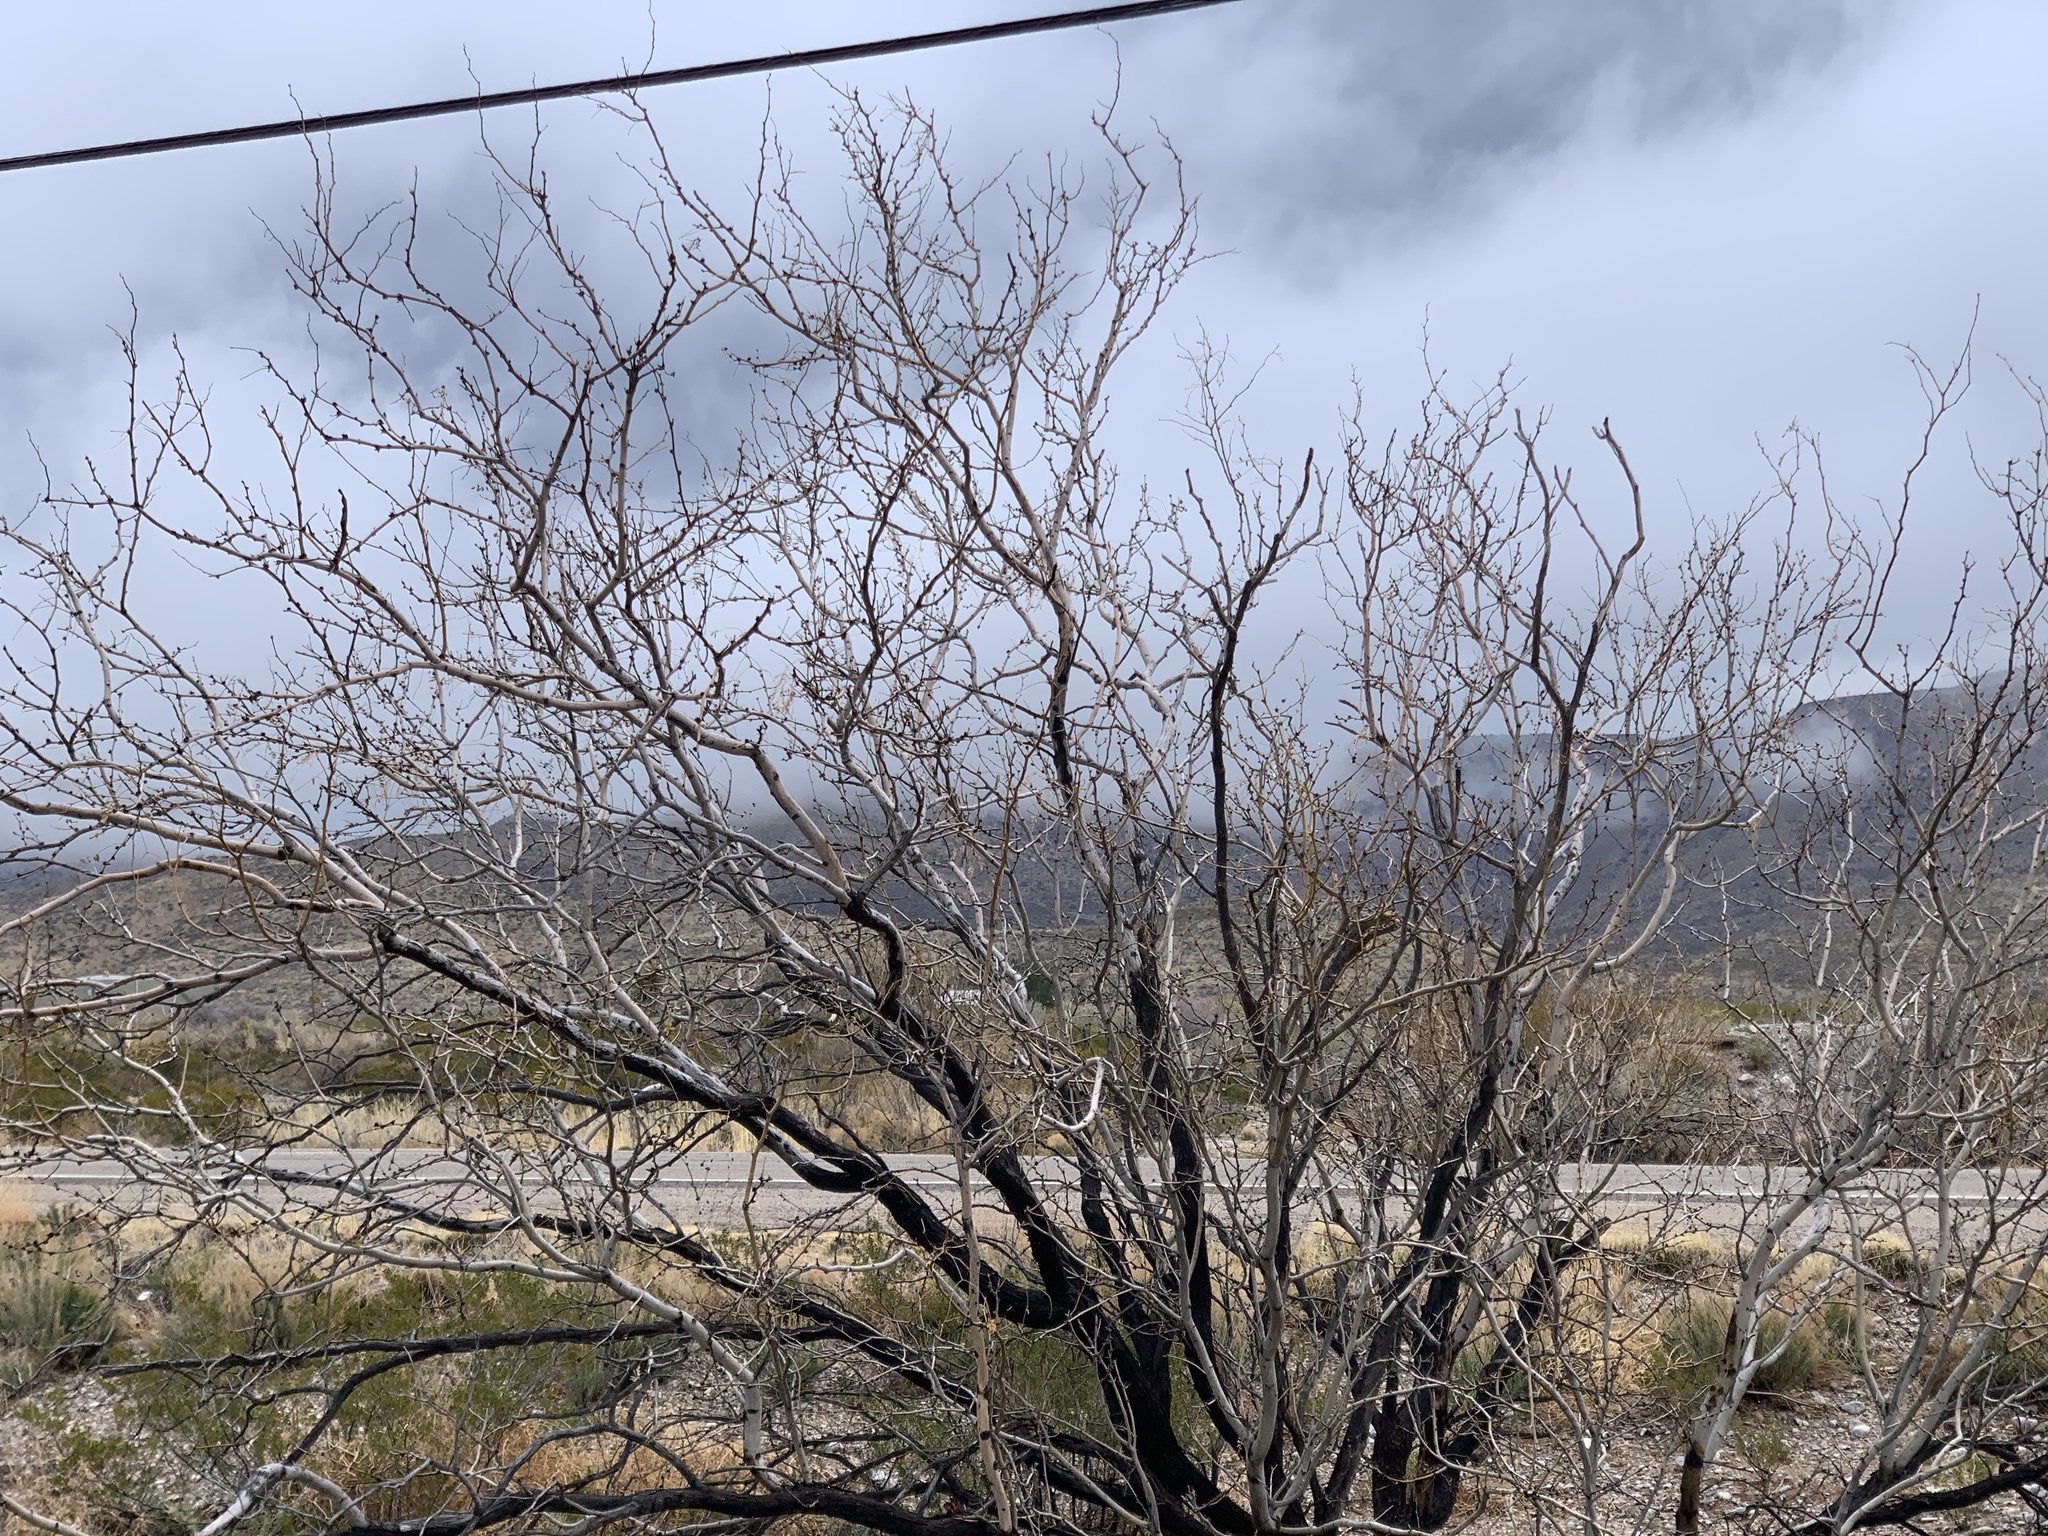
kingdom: Plantae
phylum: Tracheophyta
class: Magnoliopsida
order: Fabales
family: Fabaceae
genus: Prosopis
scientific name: Prosopis glandulosa
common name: Honey mesquite
